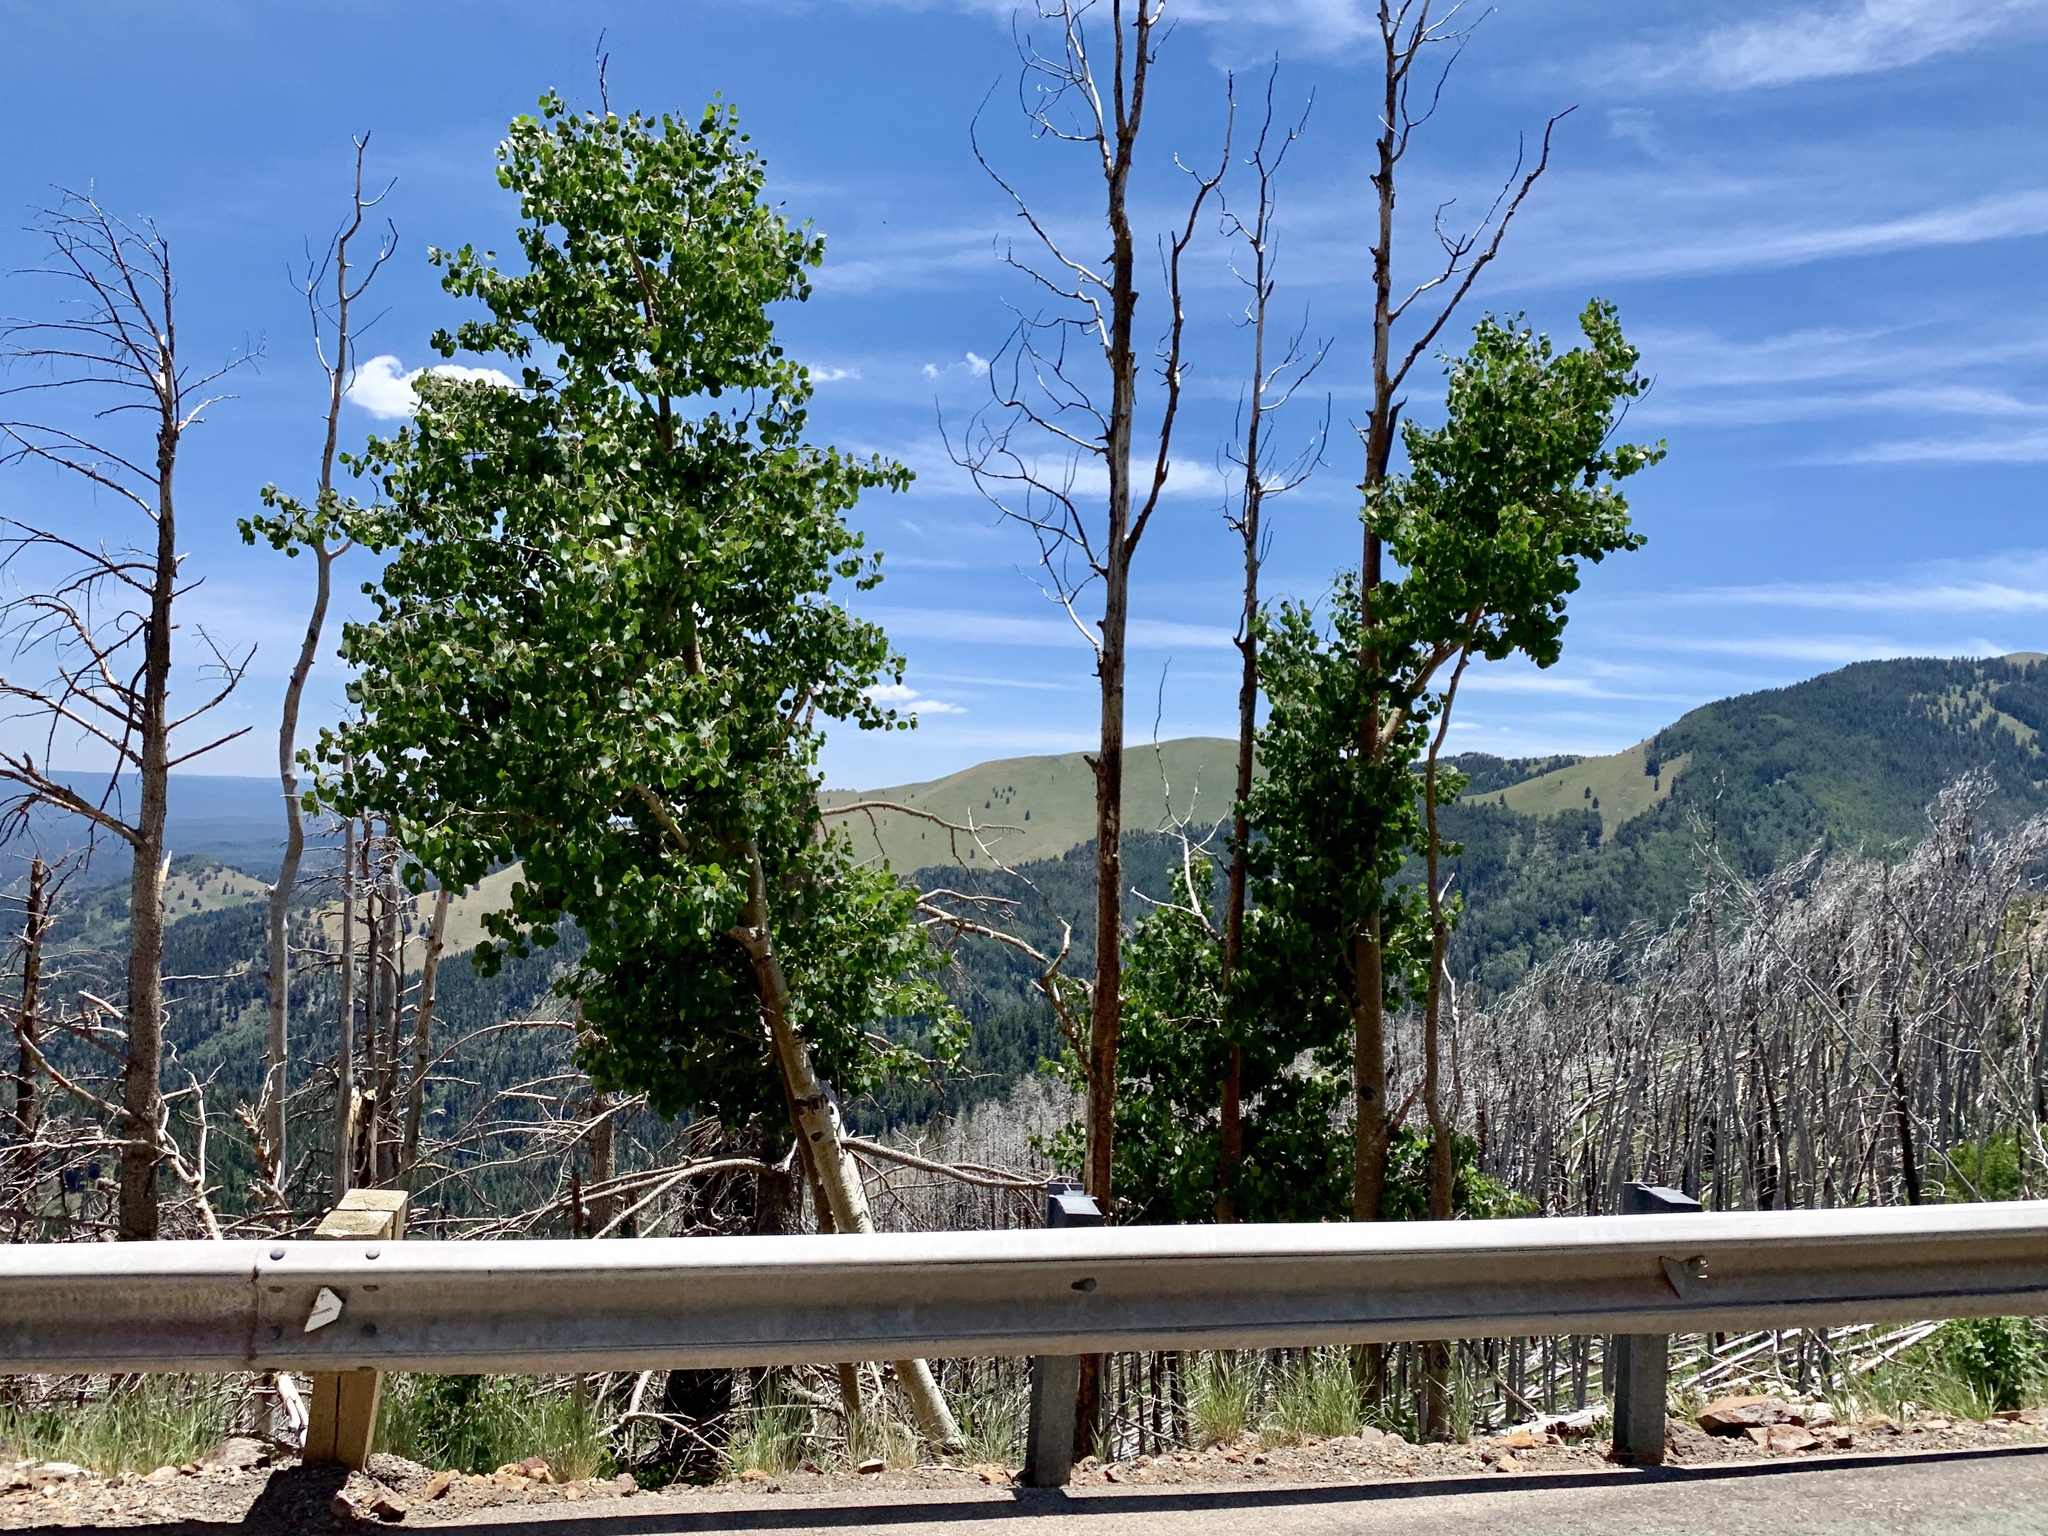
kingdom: Plantae
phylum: Tracheophyta
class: Magnoliopsida
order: Malpighiales
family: Salicaceae
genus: Populus
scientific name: Populus tremuloides
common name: Quaking aspen
